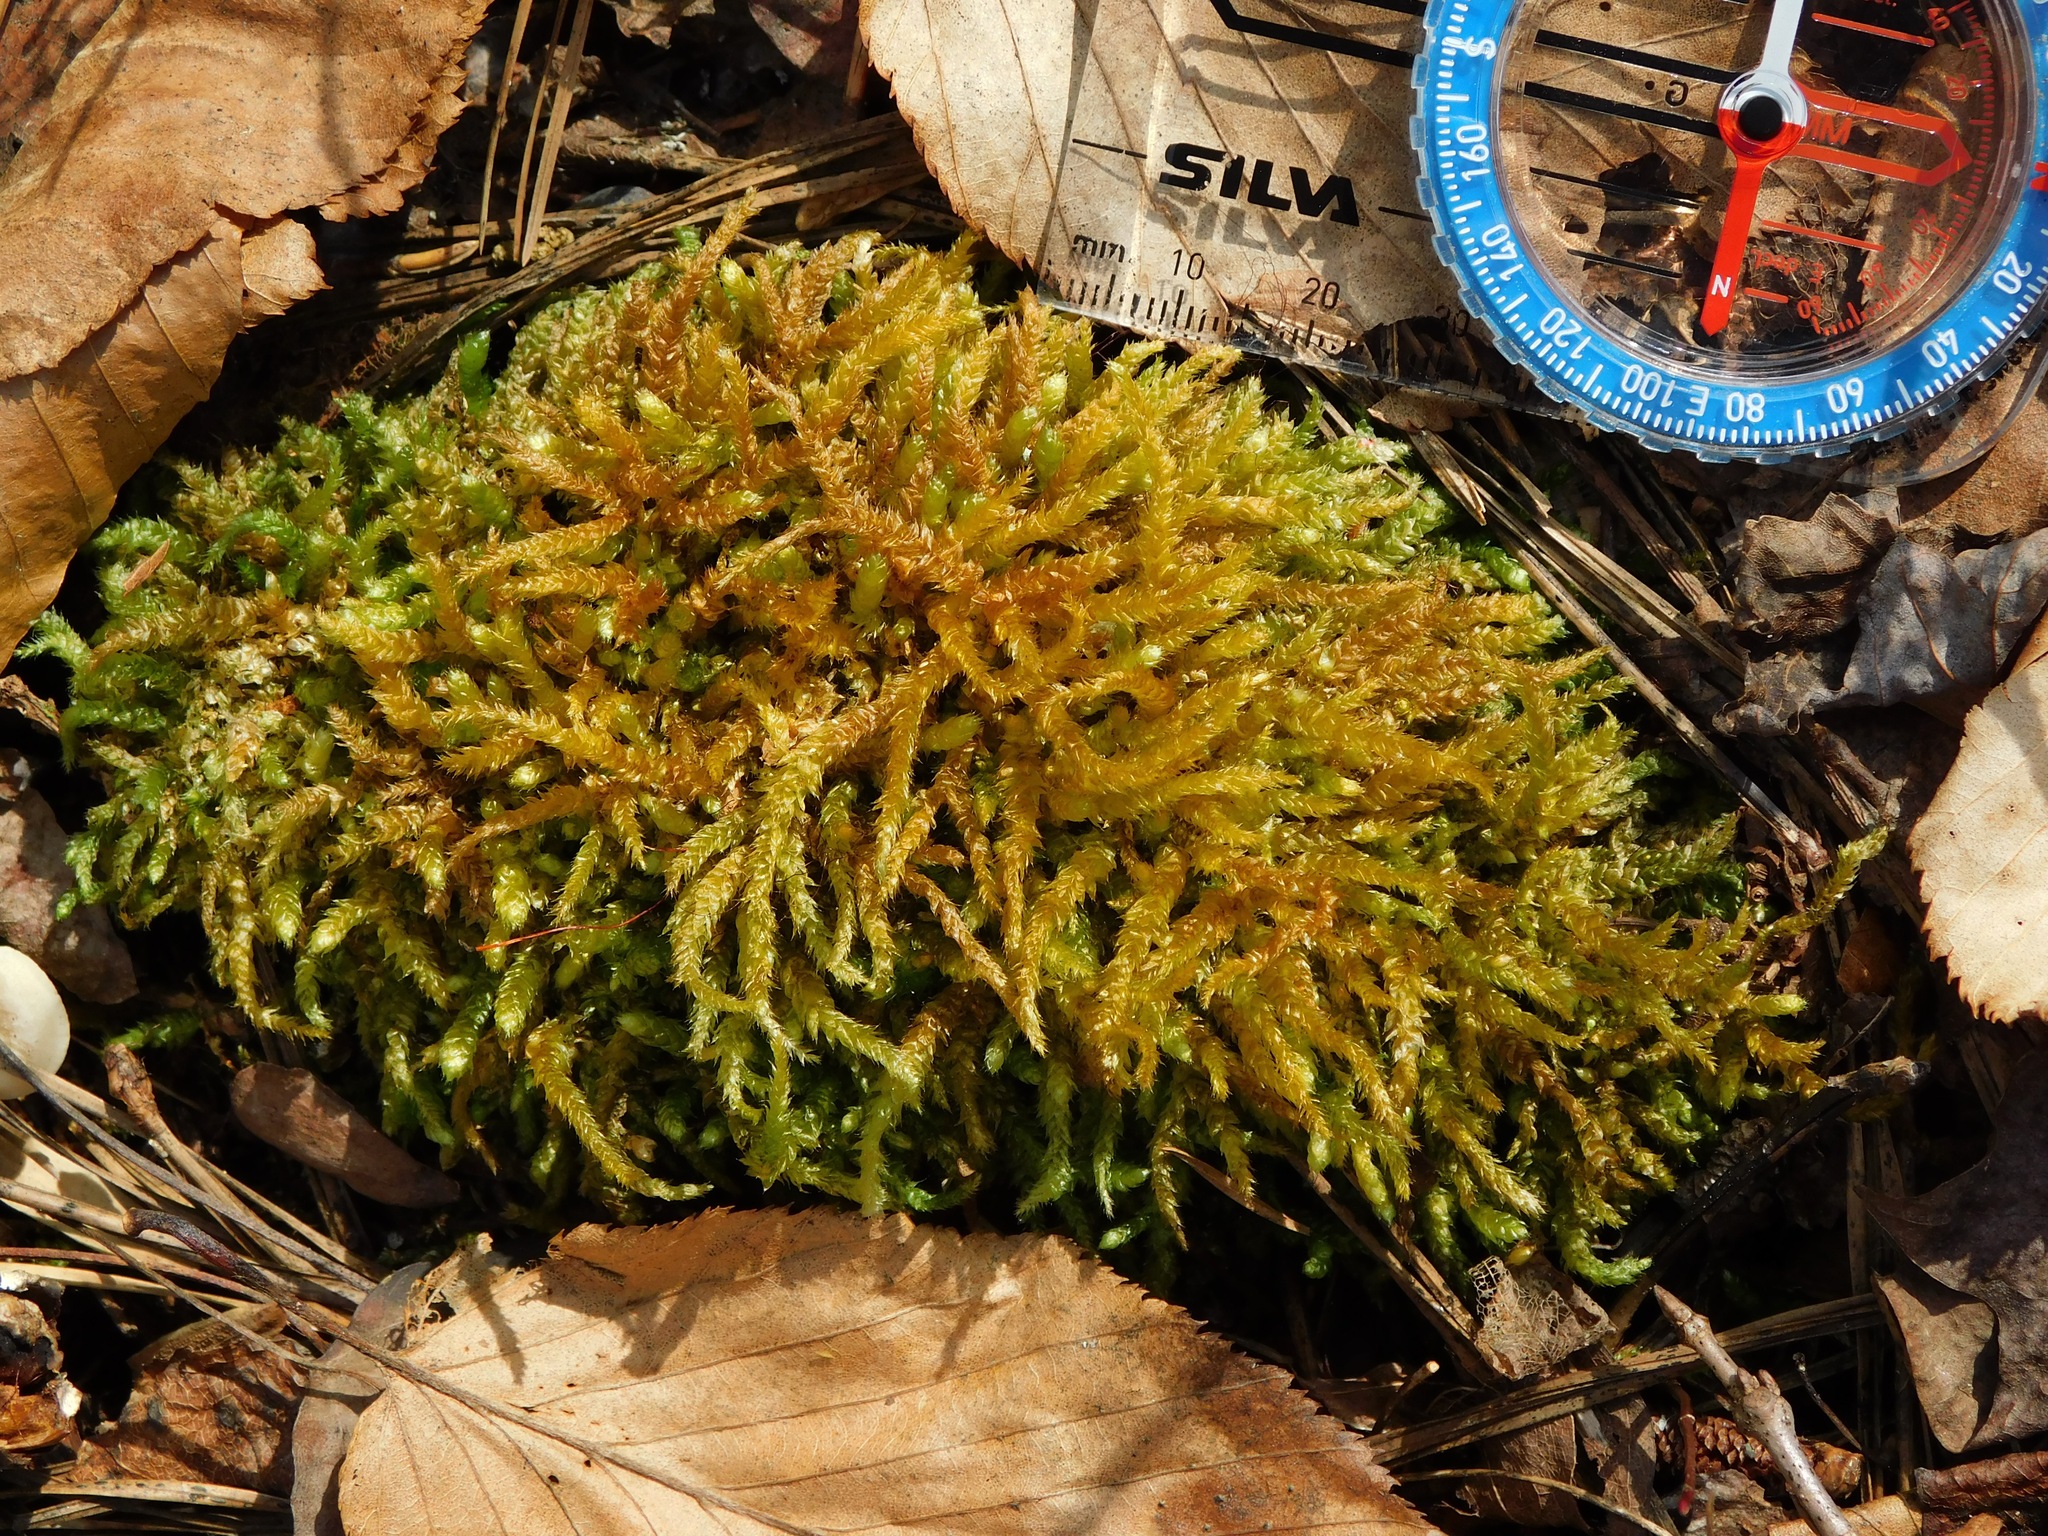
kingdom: Plantae
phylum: Bryophyta
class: Bryopsida
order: Hypnales
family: Pylaisiadelphaceae
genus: Heterophyllium
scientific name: Heterophyllium nemorosum
